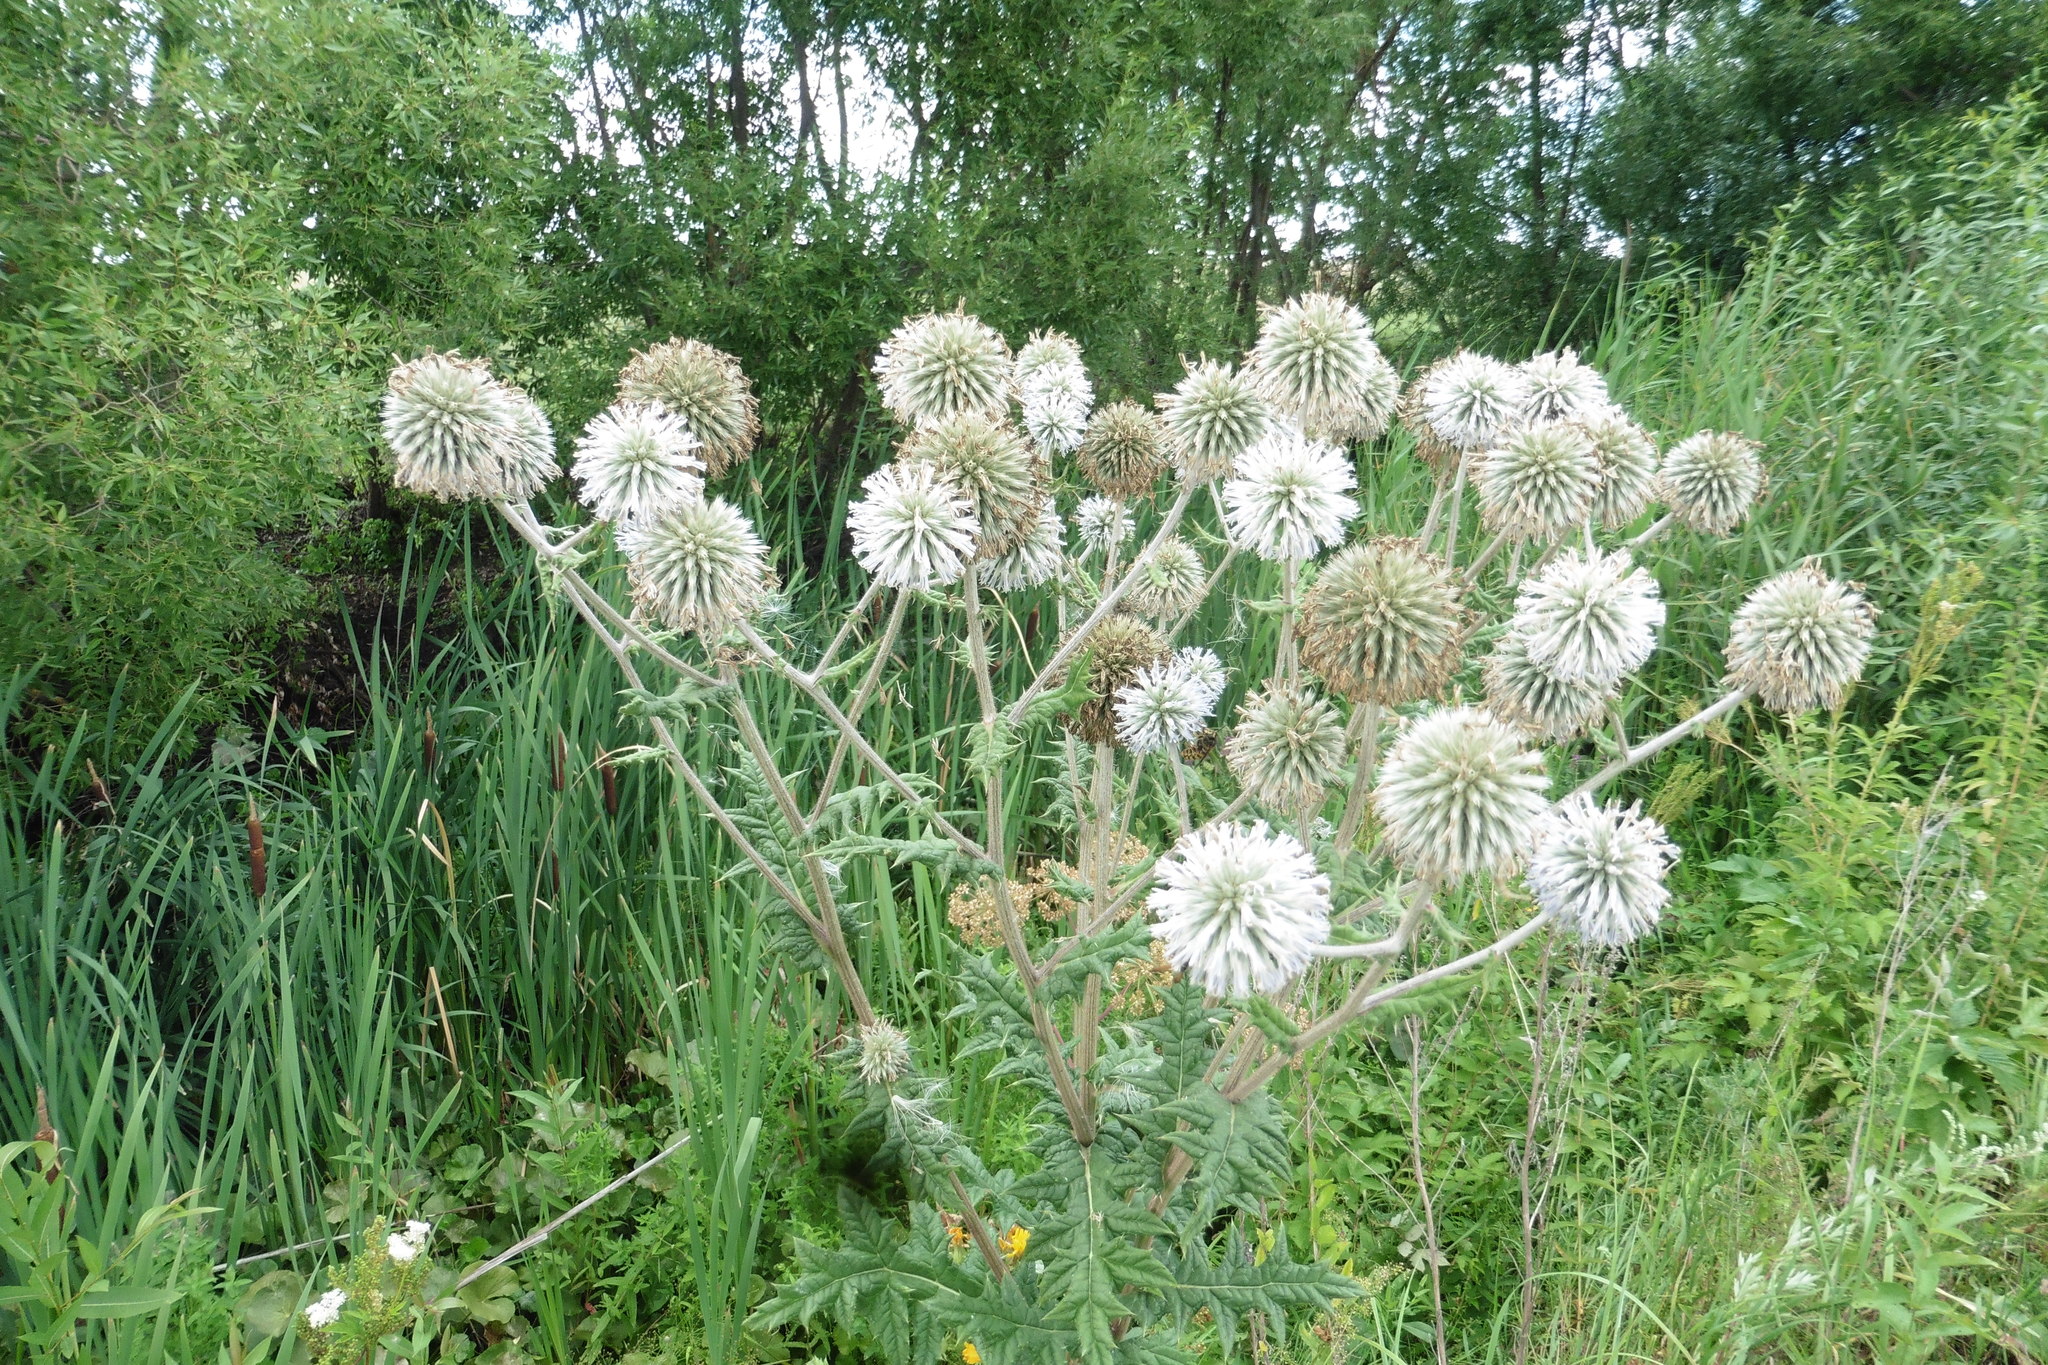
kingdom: Plantae
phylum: Tracheophyta
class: Magnoliopsida
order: Asterales
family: Asteraceae
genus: Echinops
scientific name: Echinops sphaerocephalus
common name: Glandular globe-thistle
